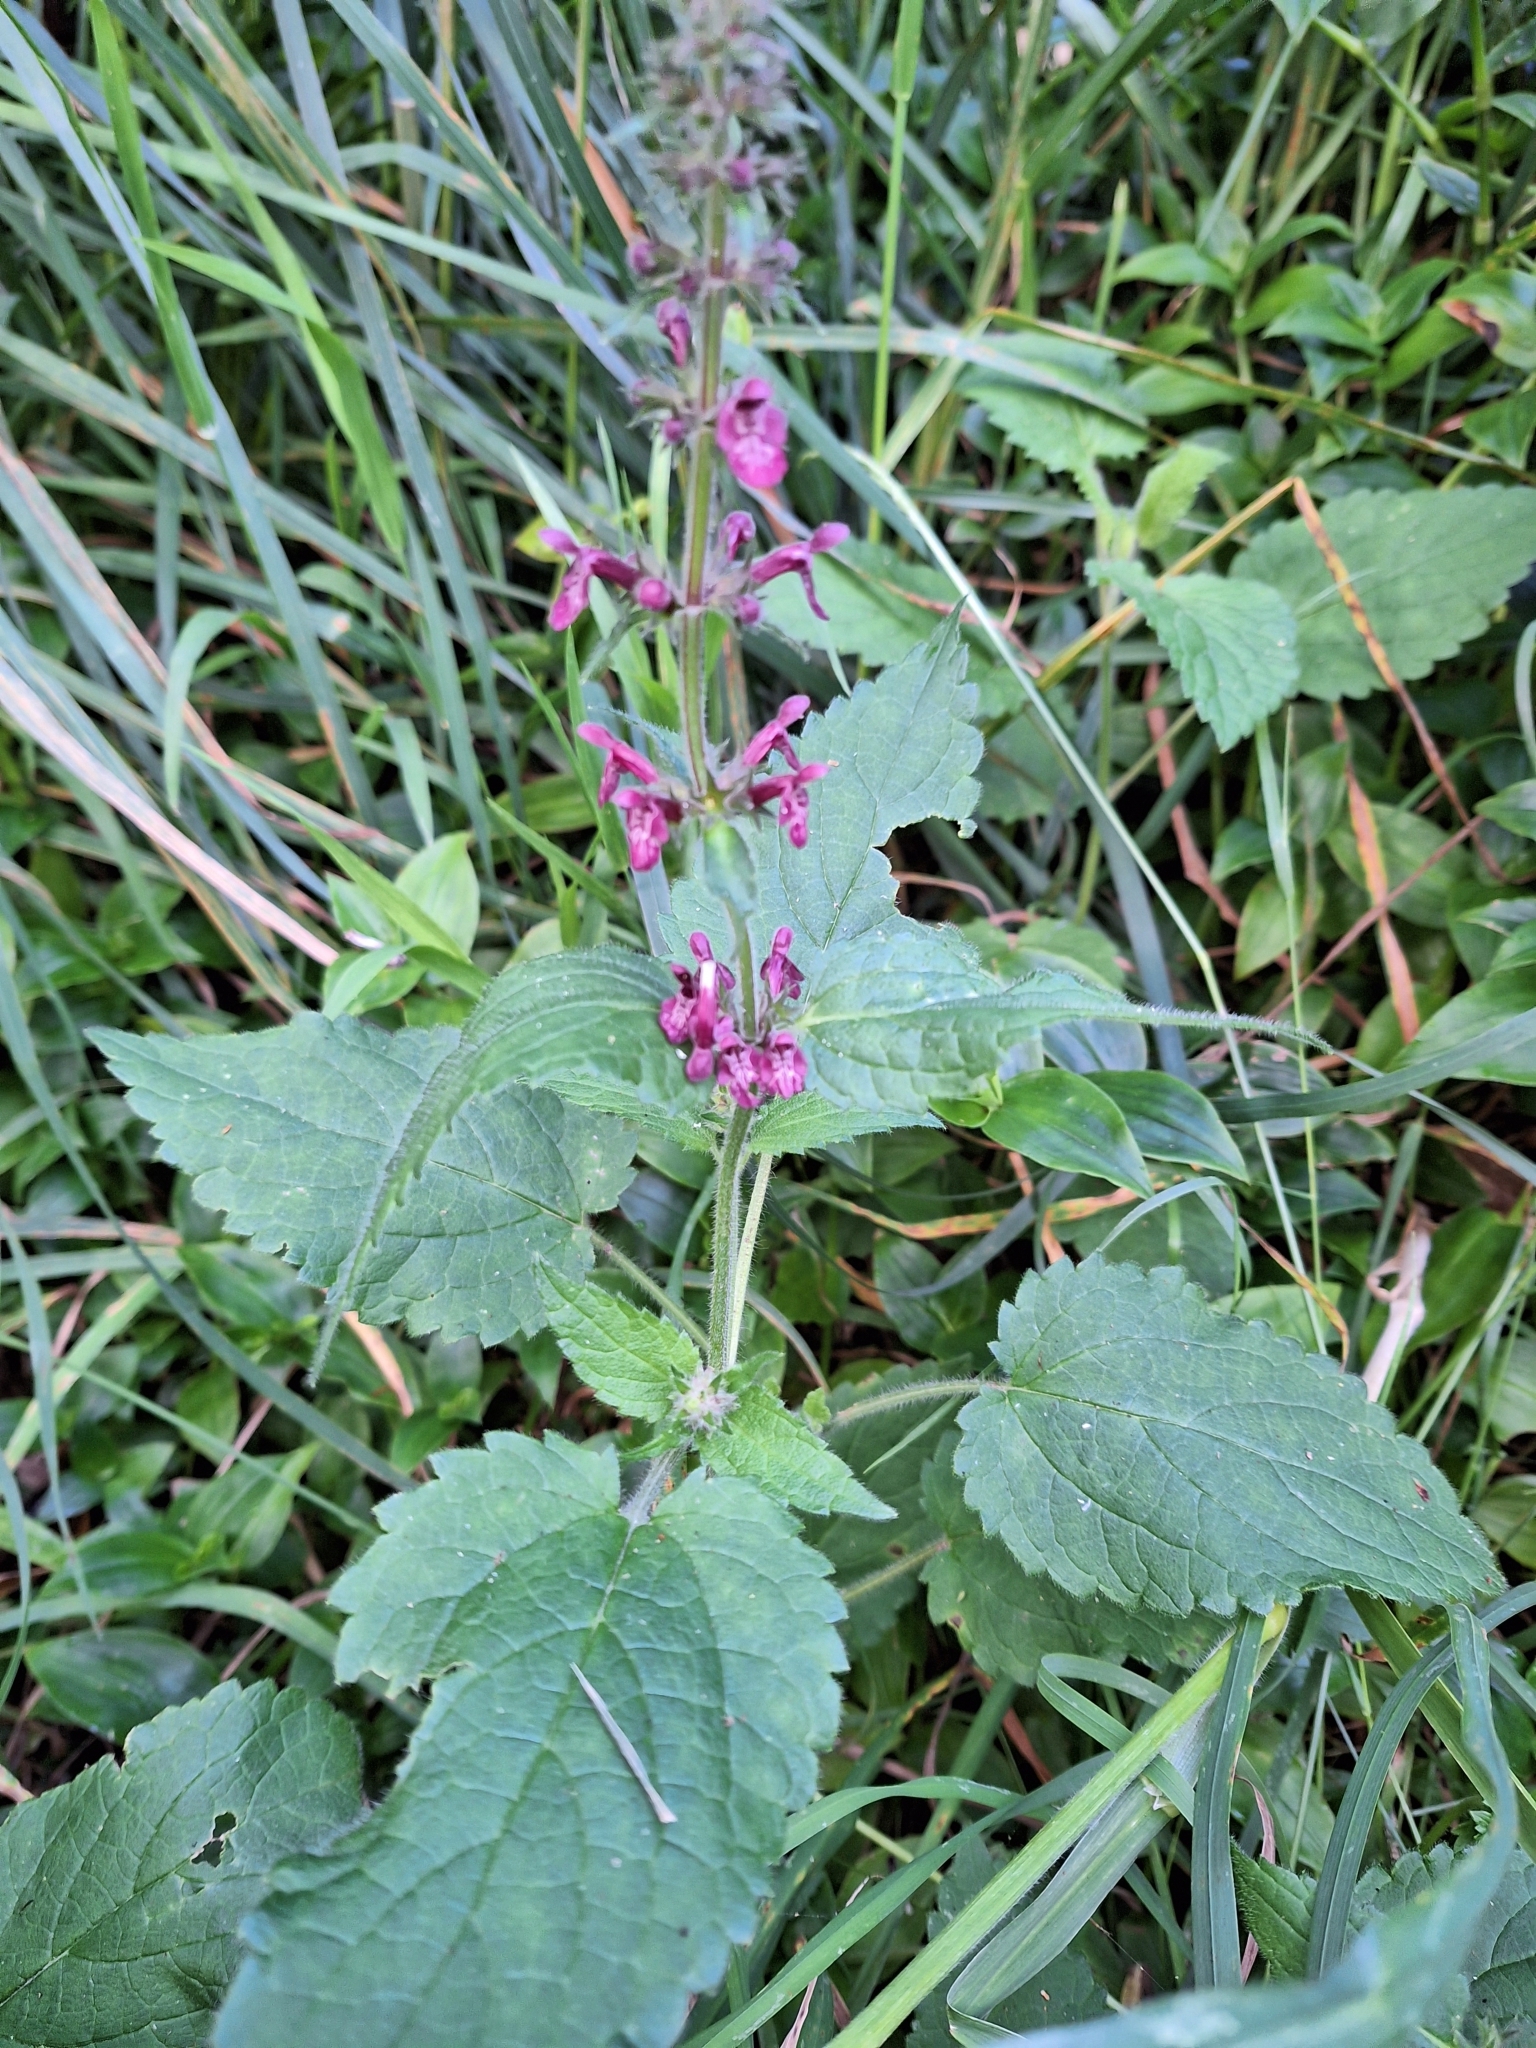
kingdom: Plantae
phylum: Tracheophyta
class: Magnoliopsida
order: Lamiales
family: Lamiaceae
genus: Stachys
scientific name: Stachys sylvatica
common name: Hedge woundwort
